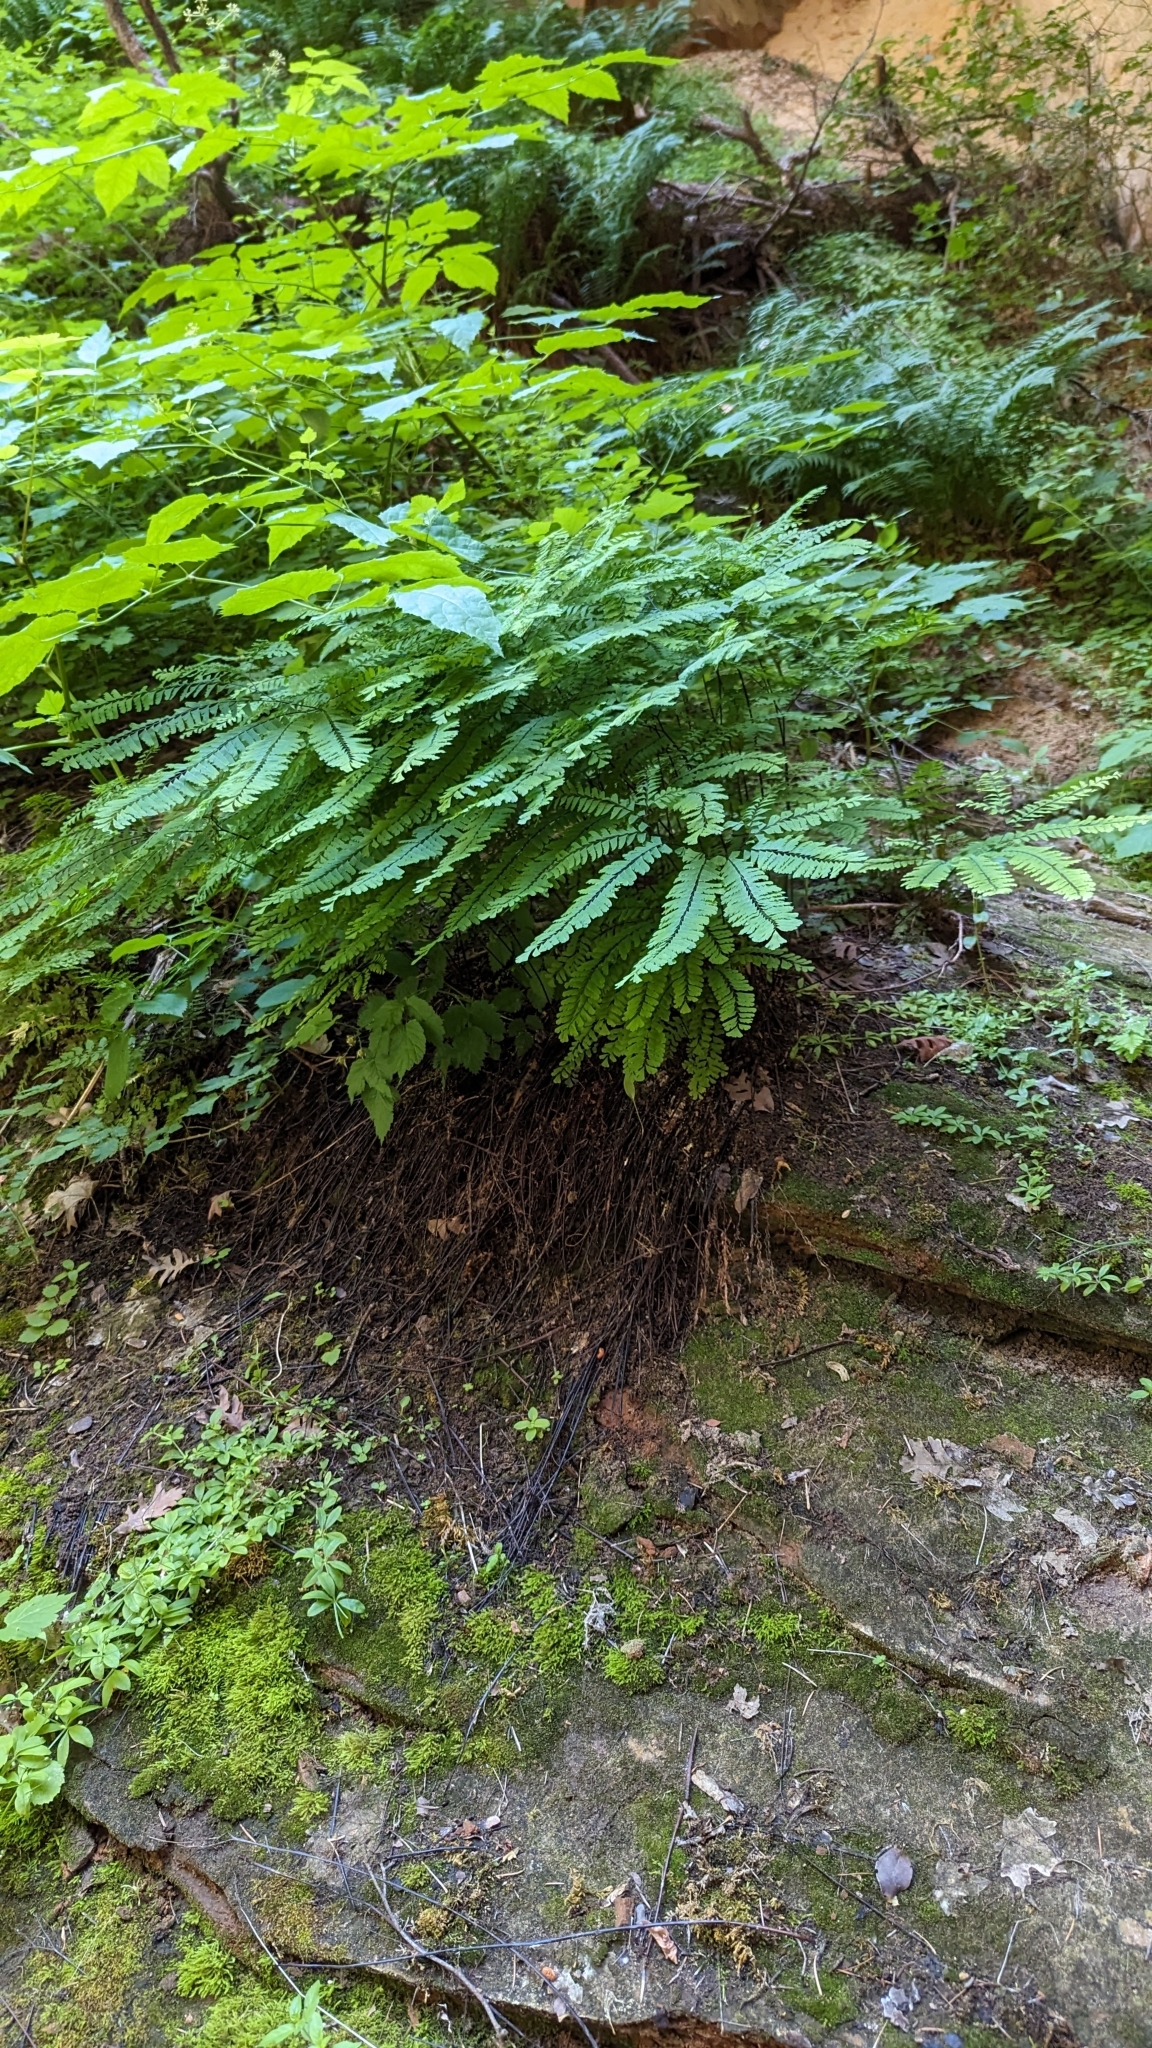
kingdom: Plantae
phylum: Tracheophyta
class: Polypodiopsida
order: Polypodiales
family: Pteridaceae
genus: Adiantum
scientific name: Adiantum aleuticum
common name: Aleutian maidenhair fern
